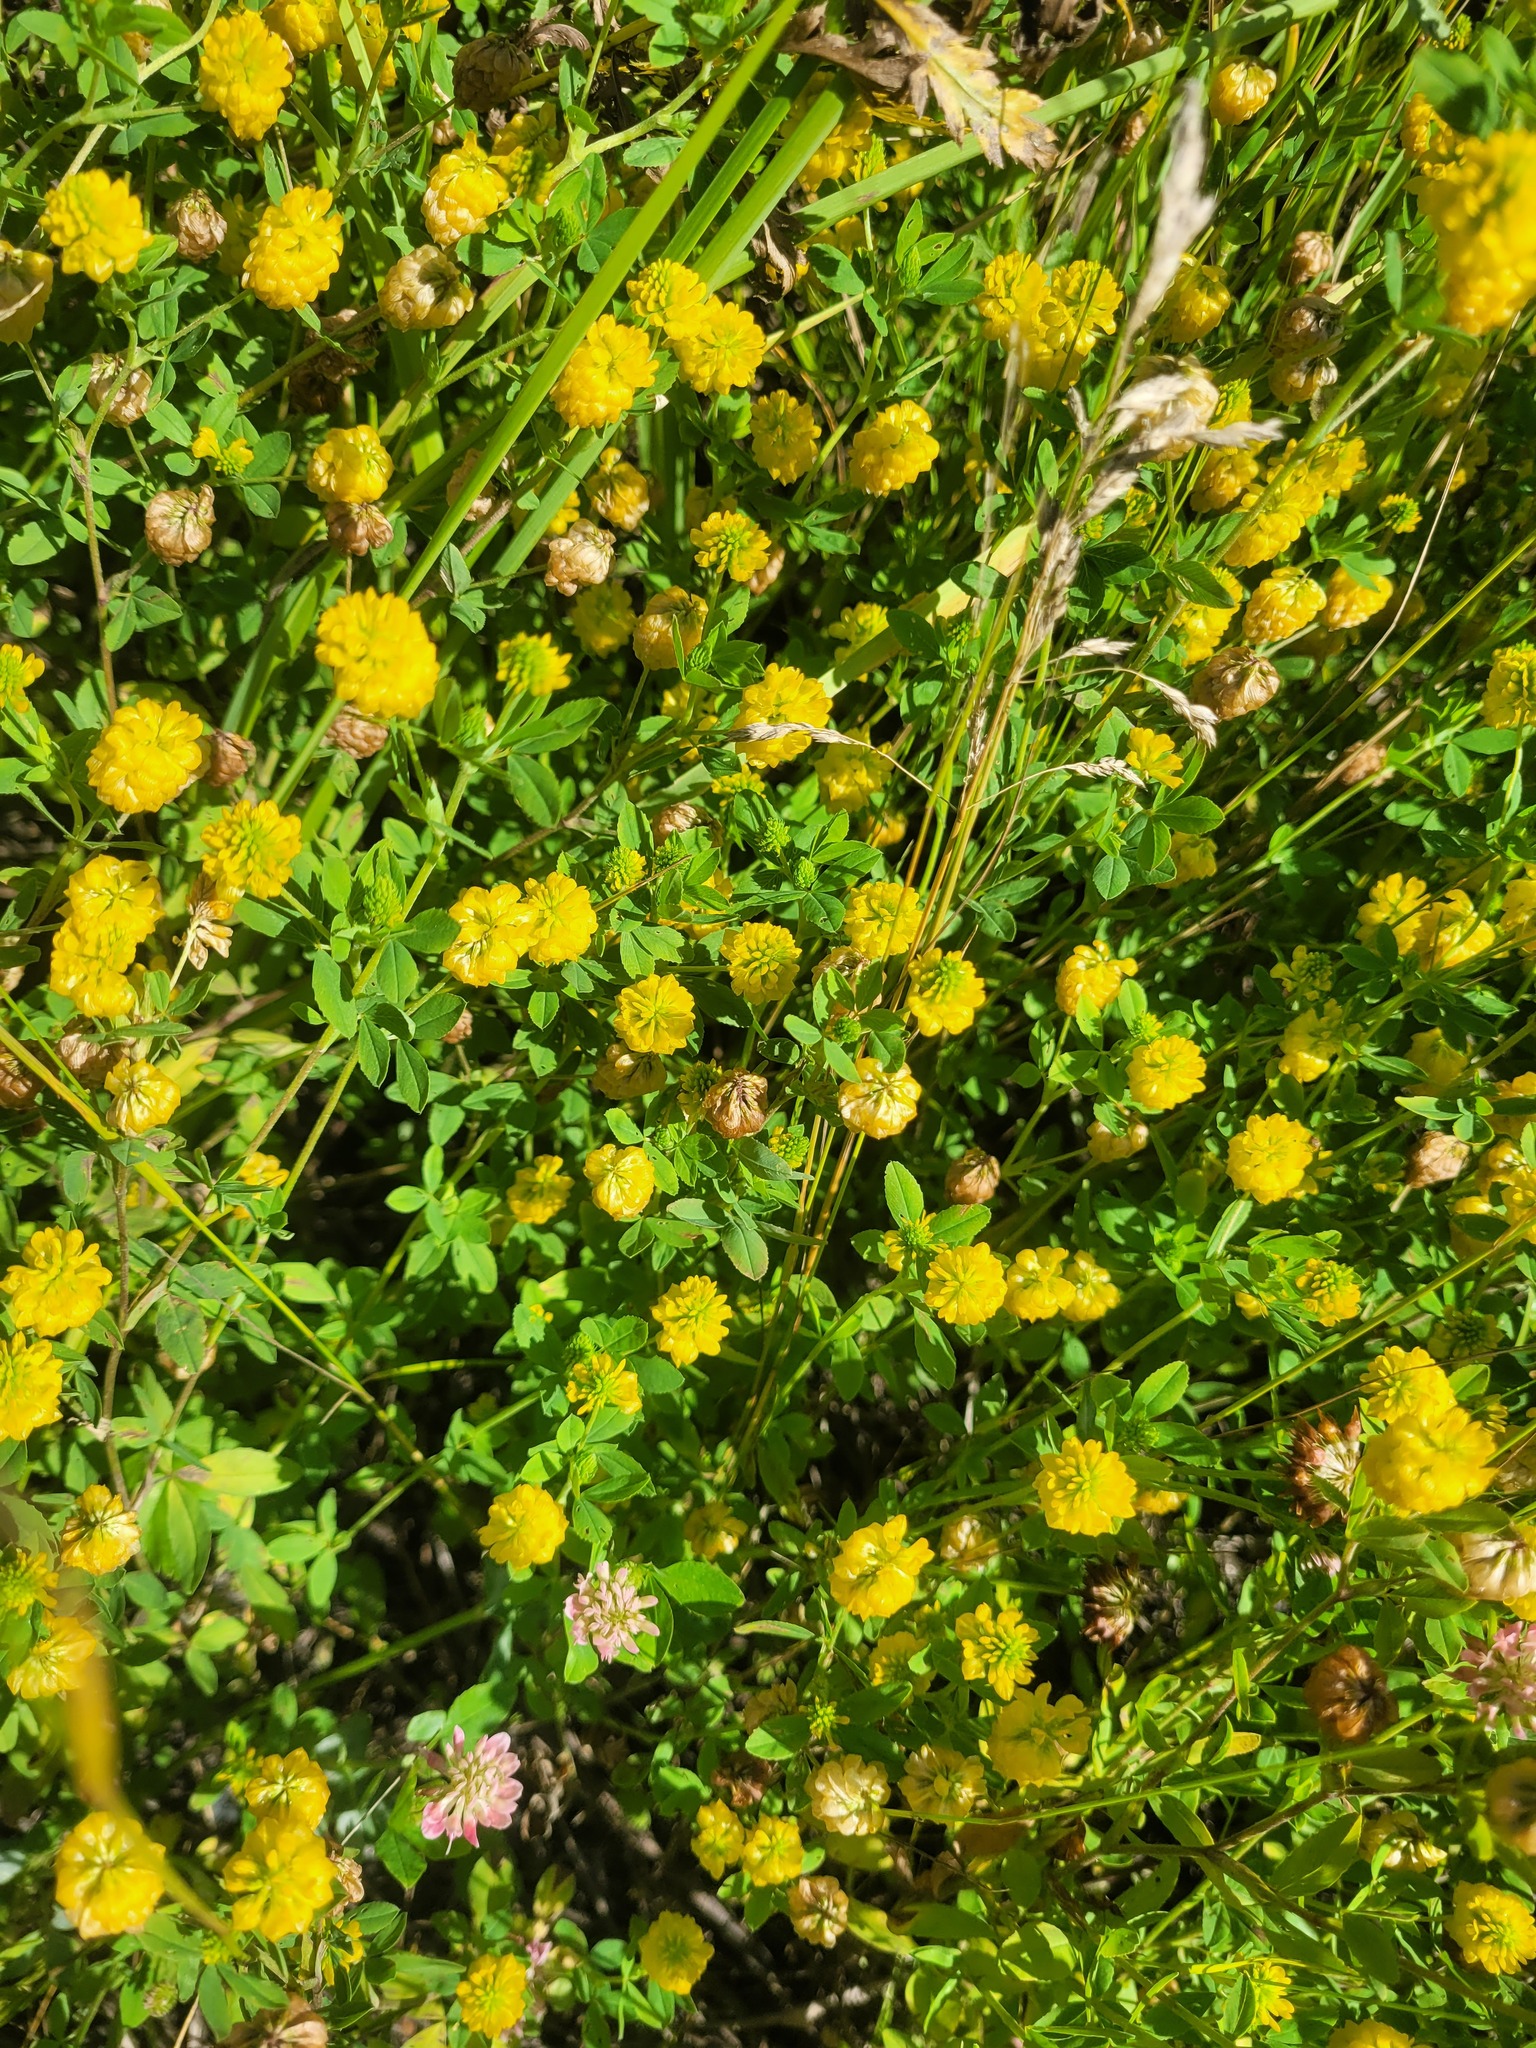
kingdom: Plantae
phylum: Tracheophyta
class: Magnoliopsida
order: Fabales
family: Fabaceae
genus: Trifolium
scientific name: Trifolium aureum
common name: Golden clover
